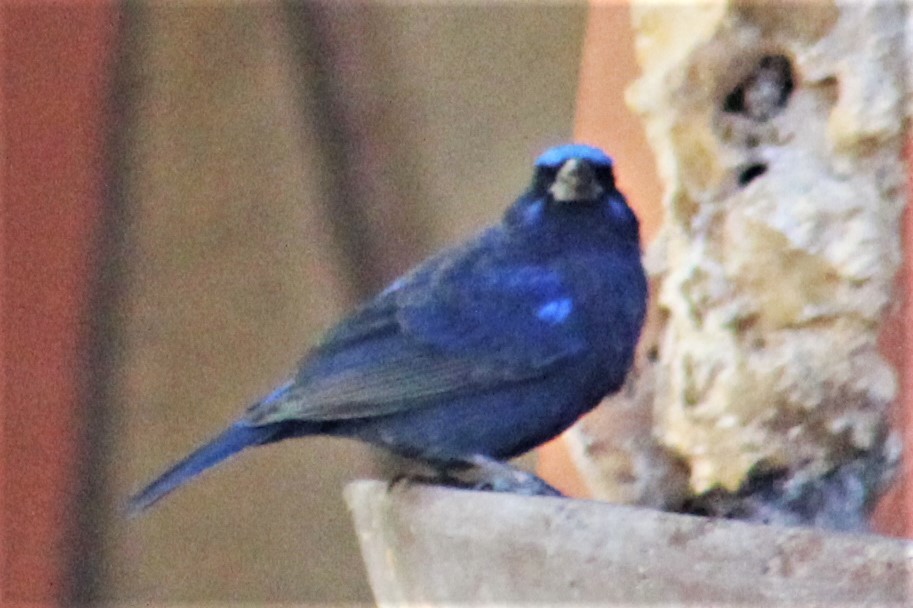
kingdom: Animalia
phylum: Chordata
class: Aves
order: Passeriformes
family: Cardinalidae
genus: Cyanocompsa
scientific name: Cyanocompsa parellina
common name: Blue bunting
